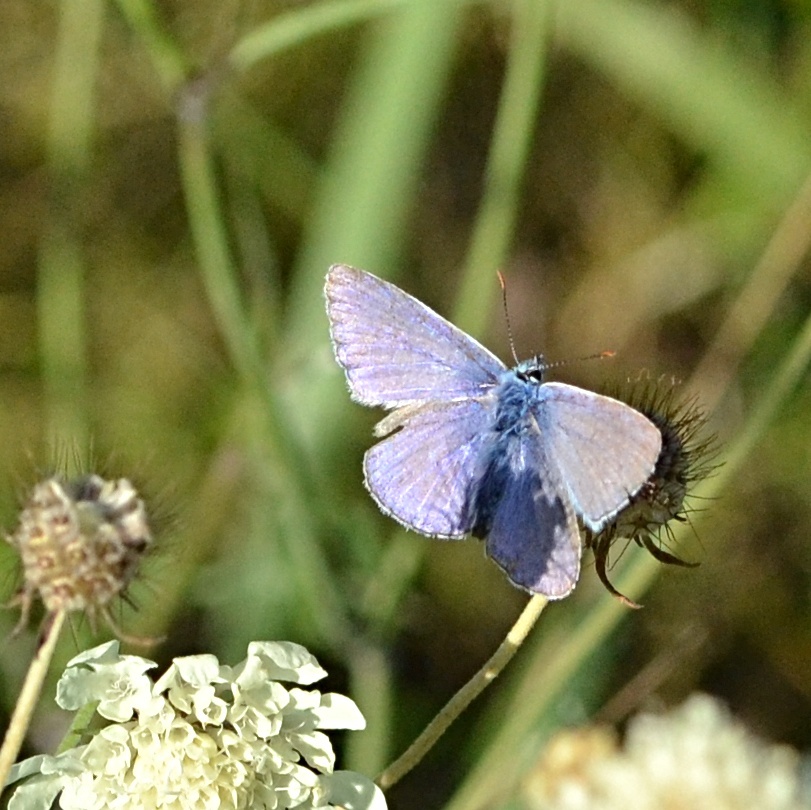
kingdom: Animalia
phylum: Arthropoda
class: Insecta
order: Lepidoptera
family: Lycaenidae
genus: Polyommatus
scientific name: Polyommatus icarus
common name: Common blue
